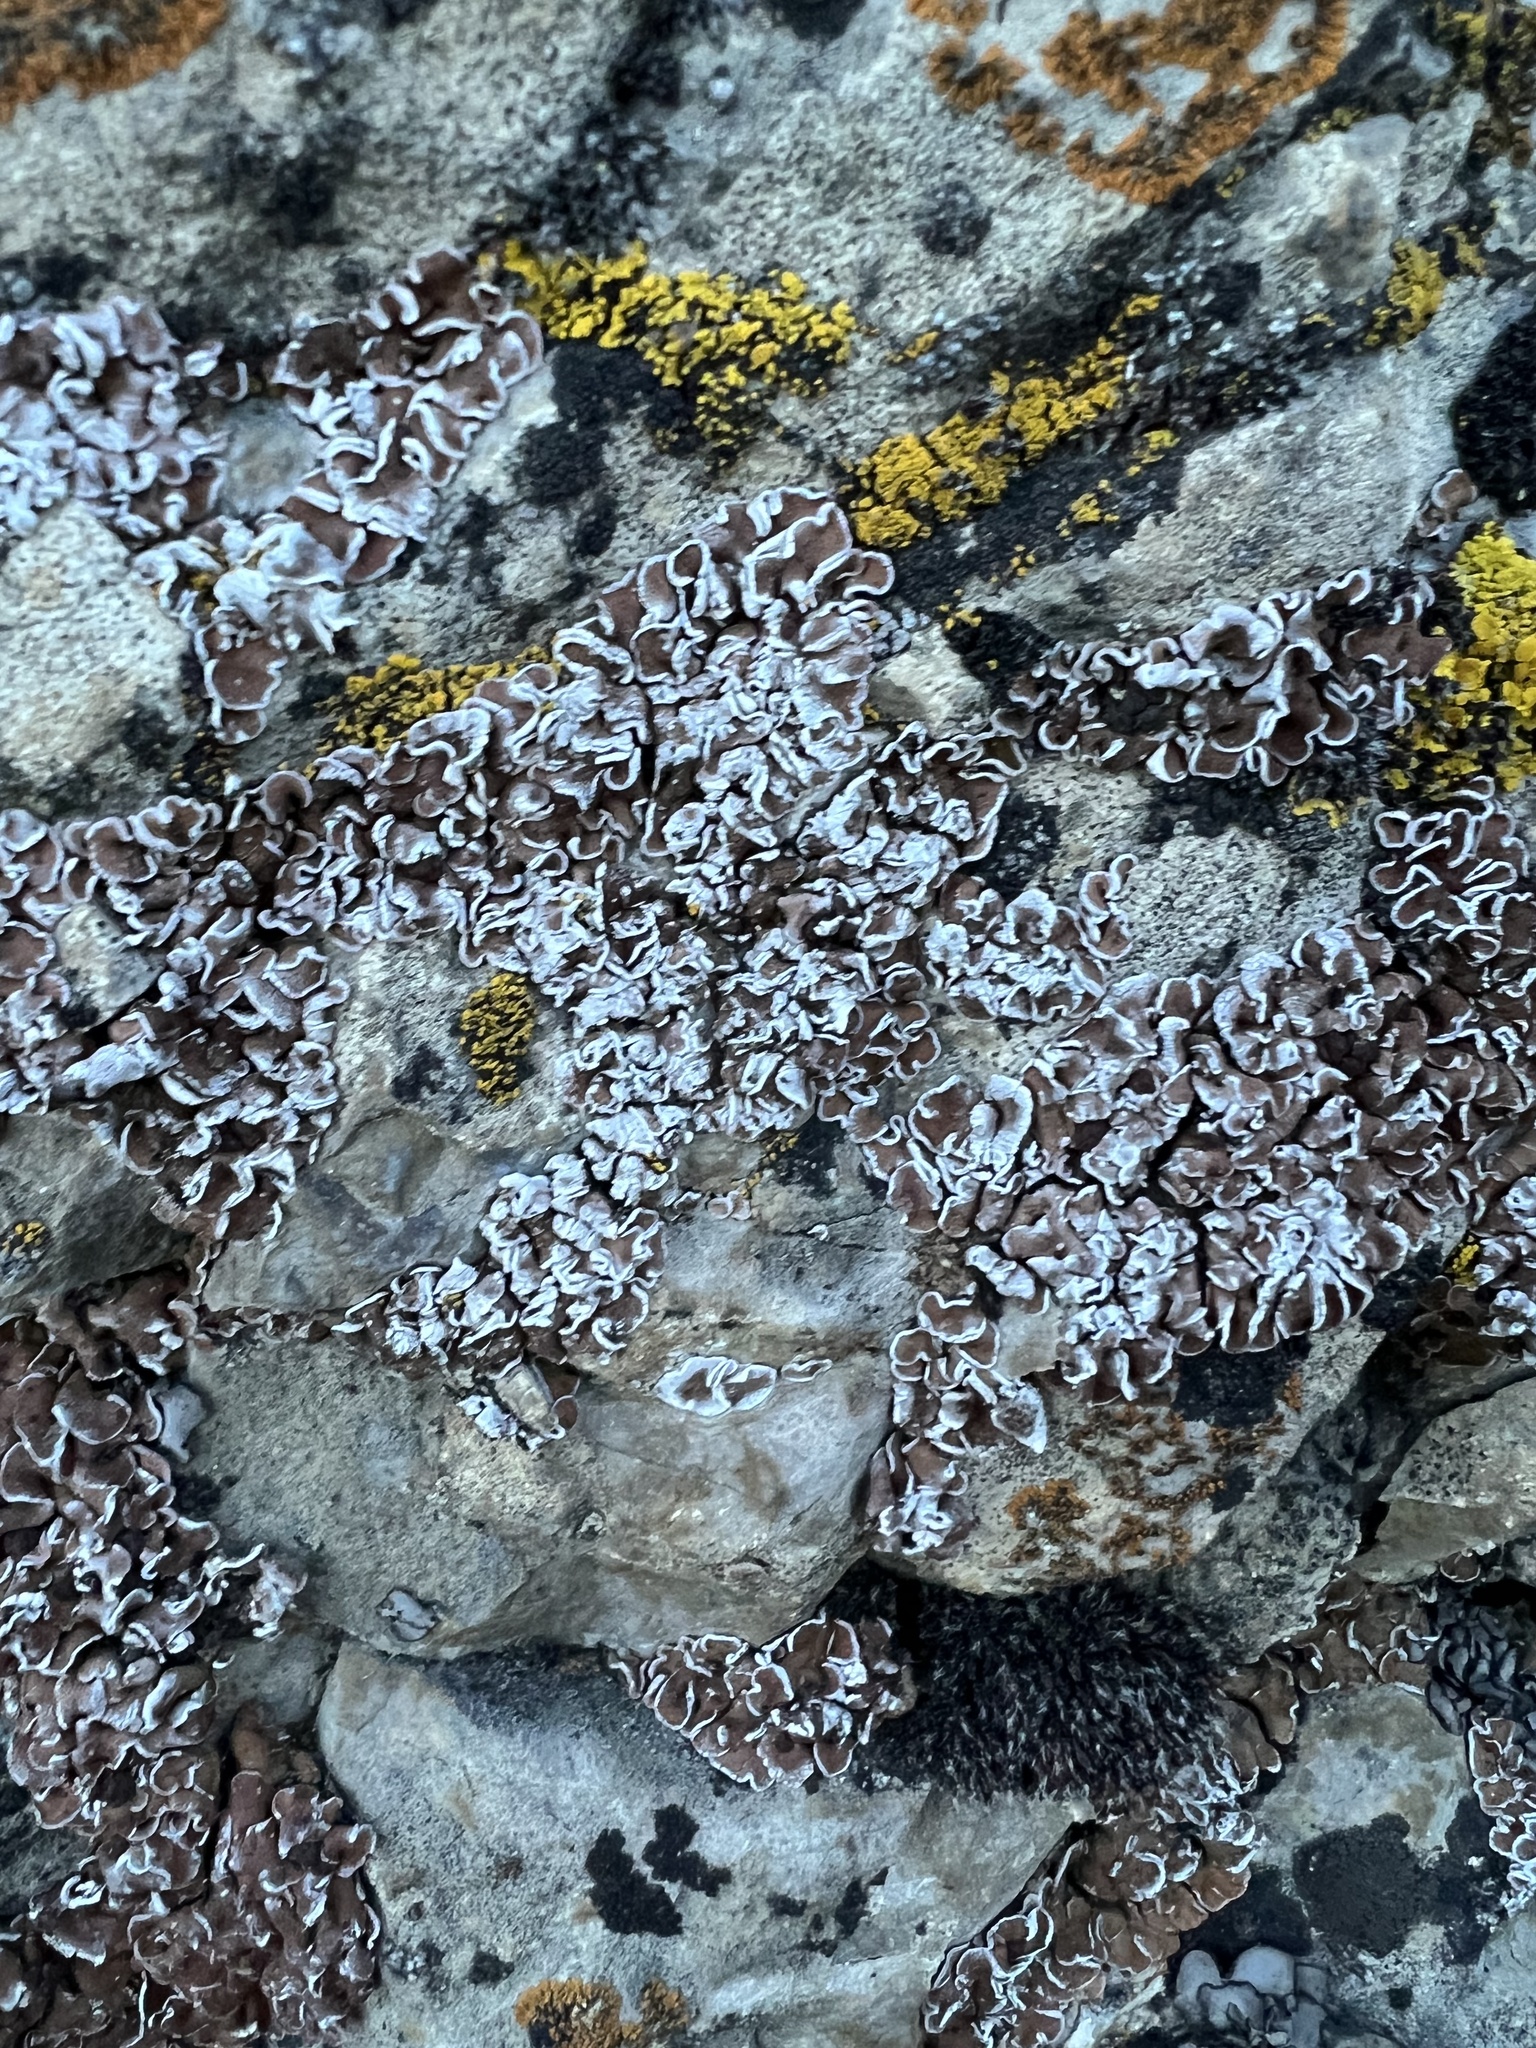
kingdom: Fungi
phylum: Ascomycota
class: Lecanoromycetes
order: Lecanorales
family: Psoraceae
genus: Psora
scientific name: Psora tuckermanii
